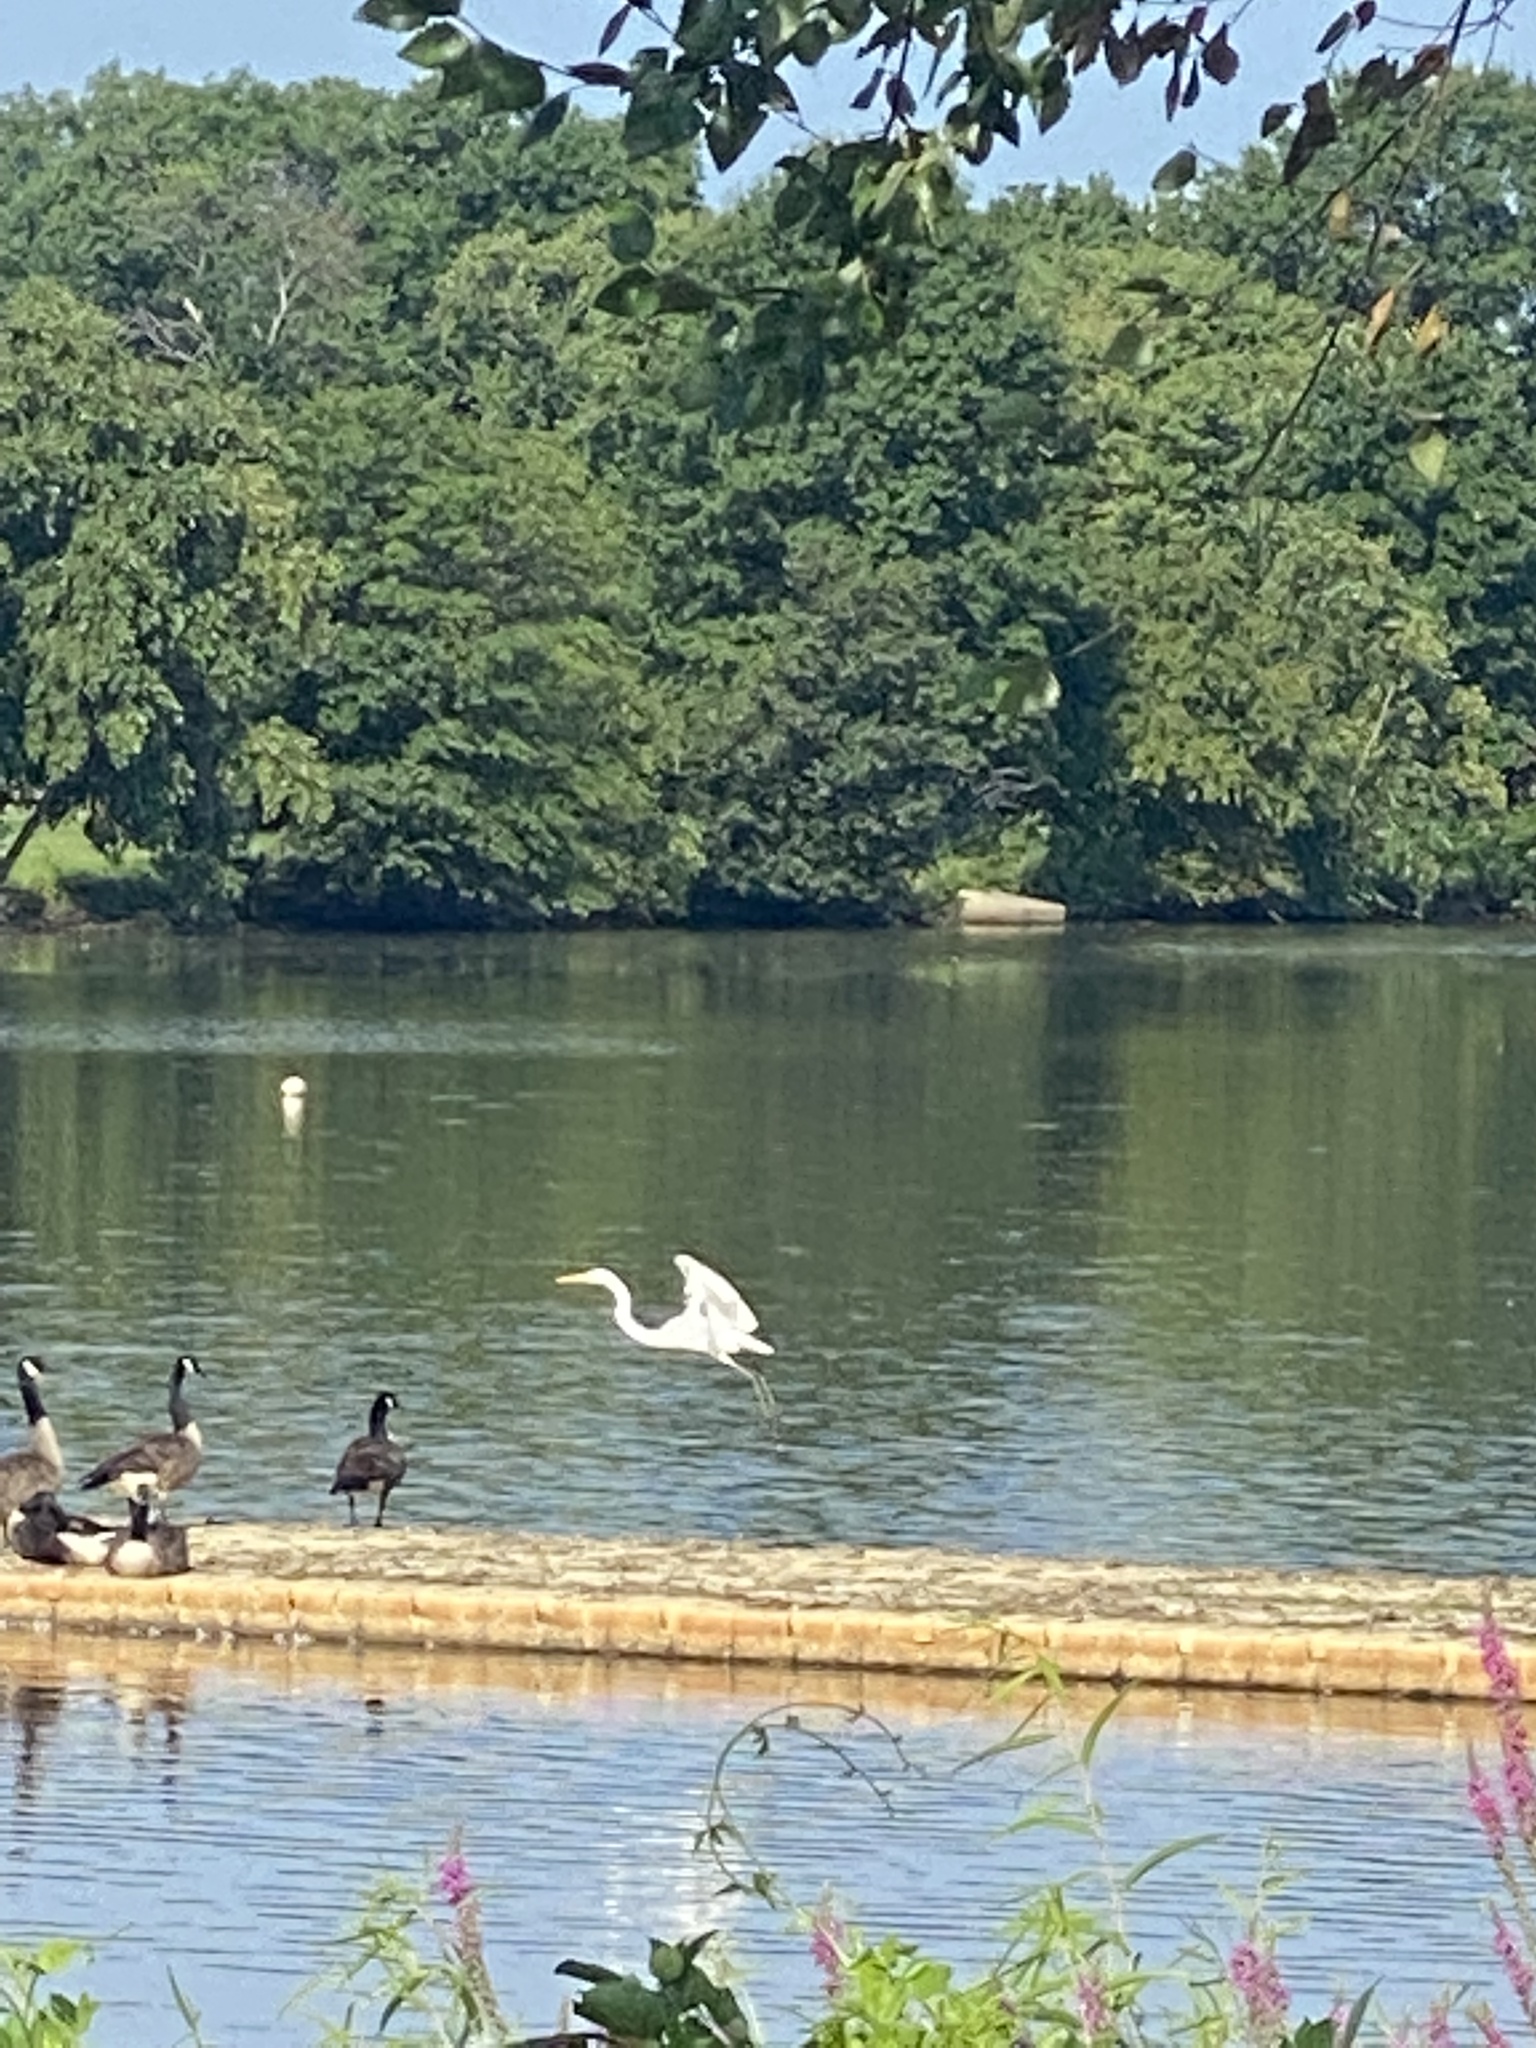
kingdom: Animalia
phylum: Chordata
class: Aves
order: Pelecaniformes
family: Ardeidae
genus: Ardea
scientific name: Ardea alba
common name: Great egret
